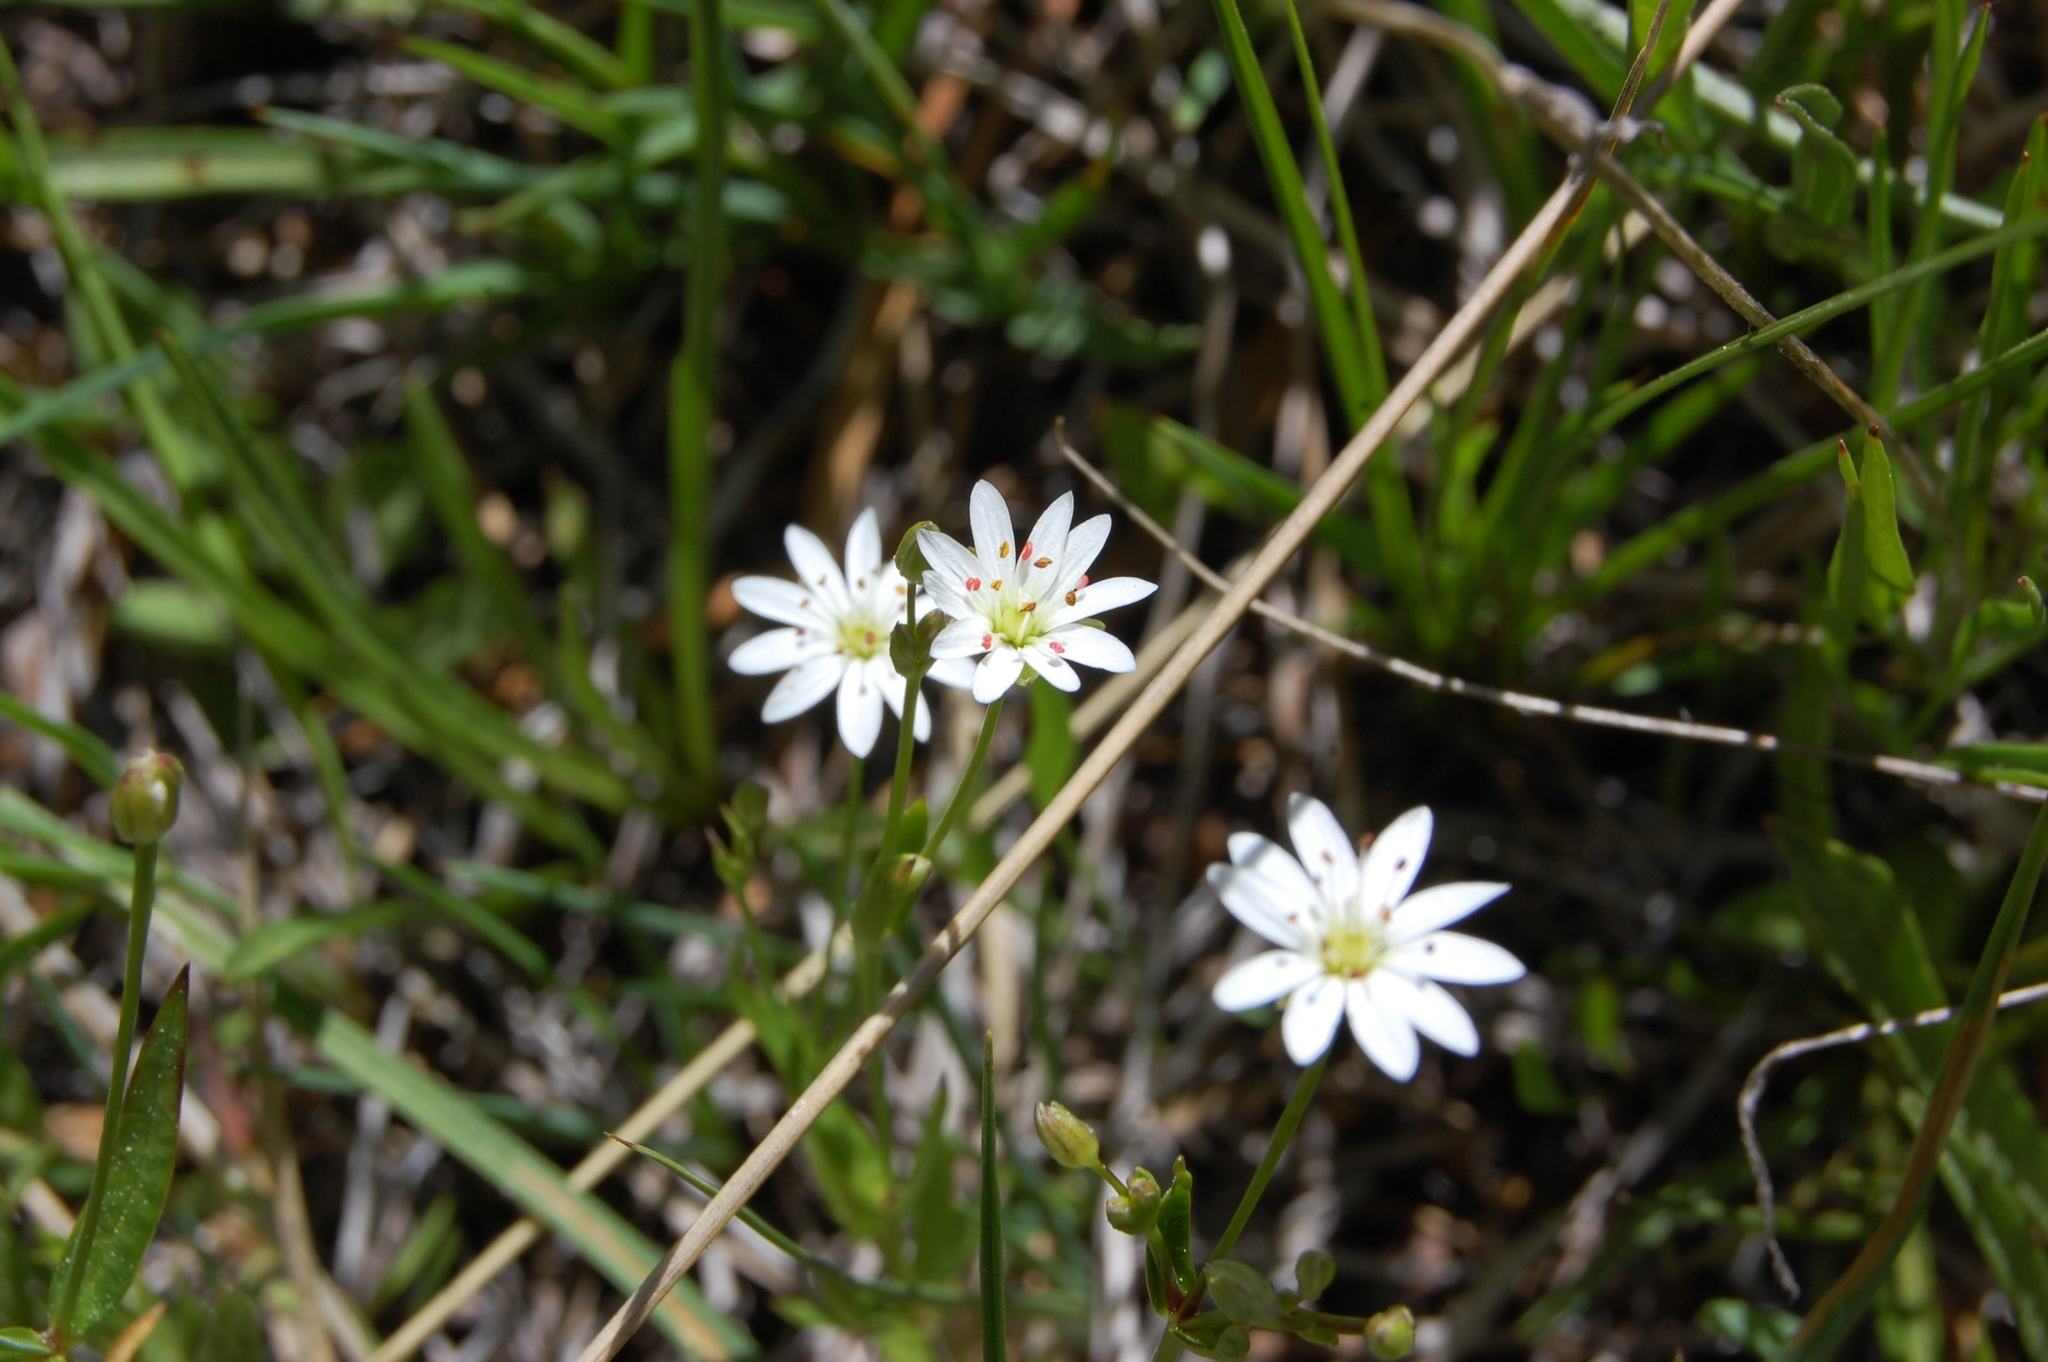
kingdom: Plantae
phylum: Tracheophyta
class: Magnoliopsida
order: Caryophyllales
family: Caryophyllaceae
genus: Stellaria
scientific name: Stellaria longipes
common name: Goldie's starwort
